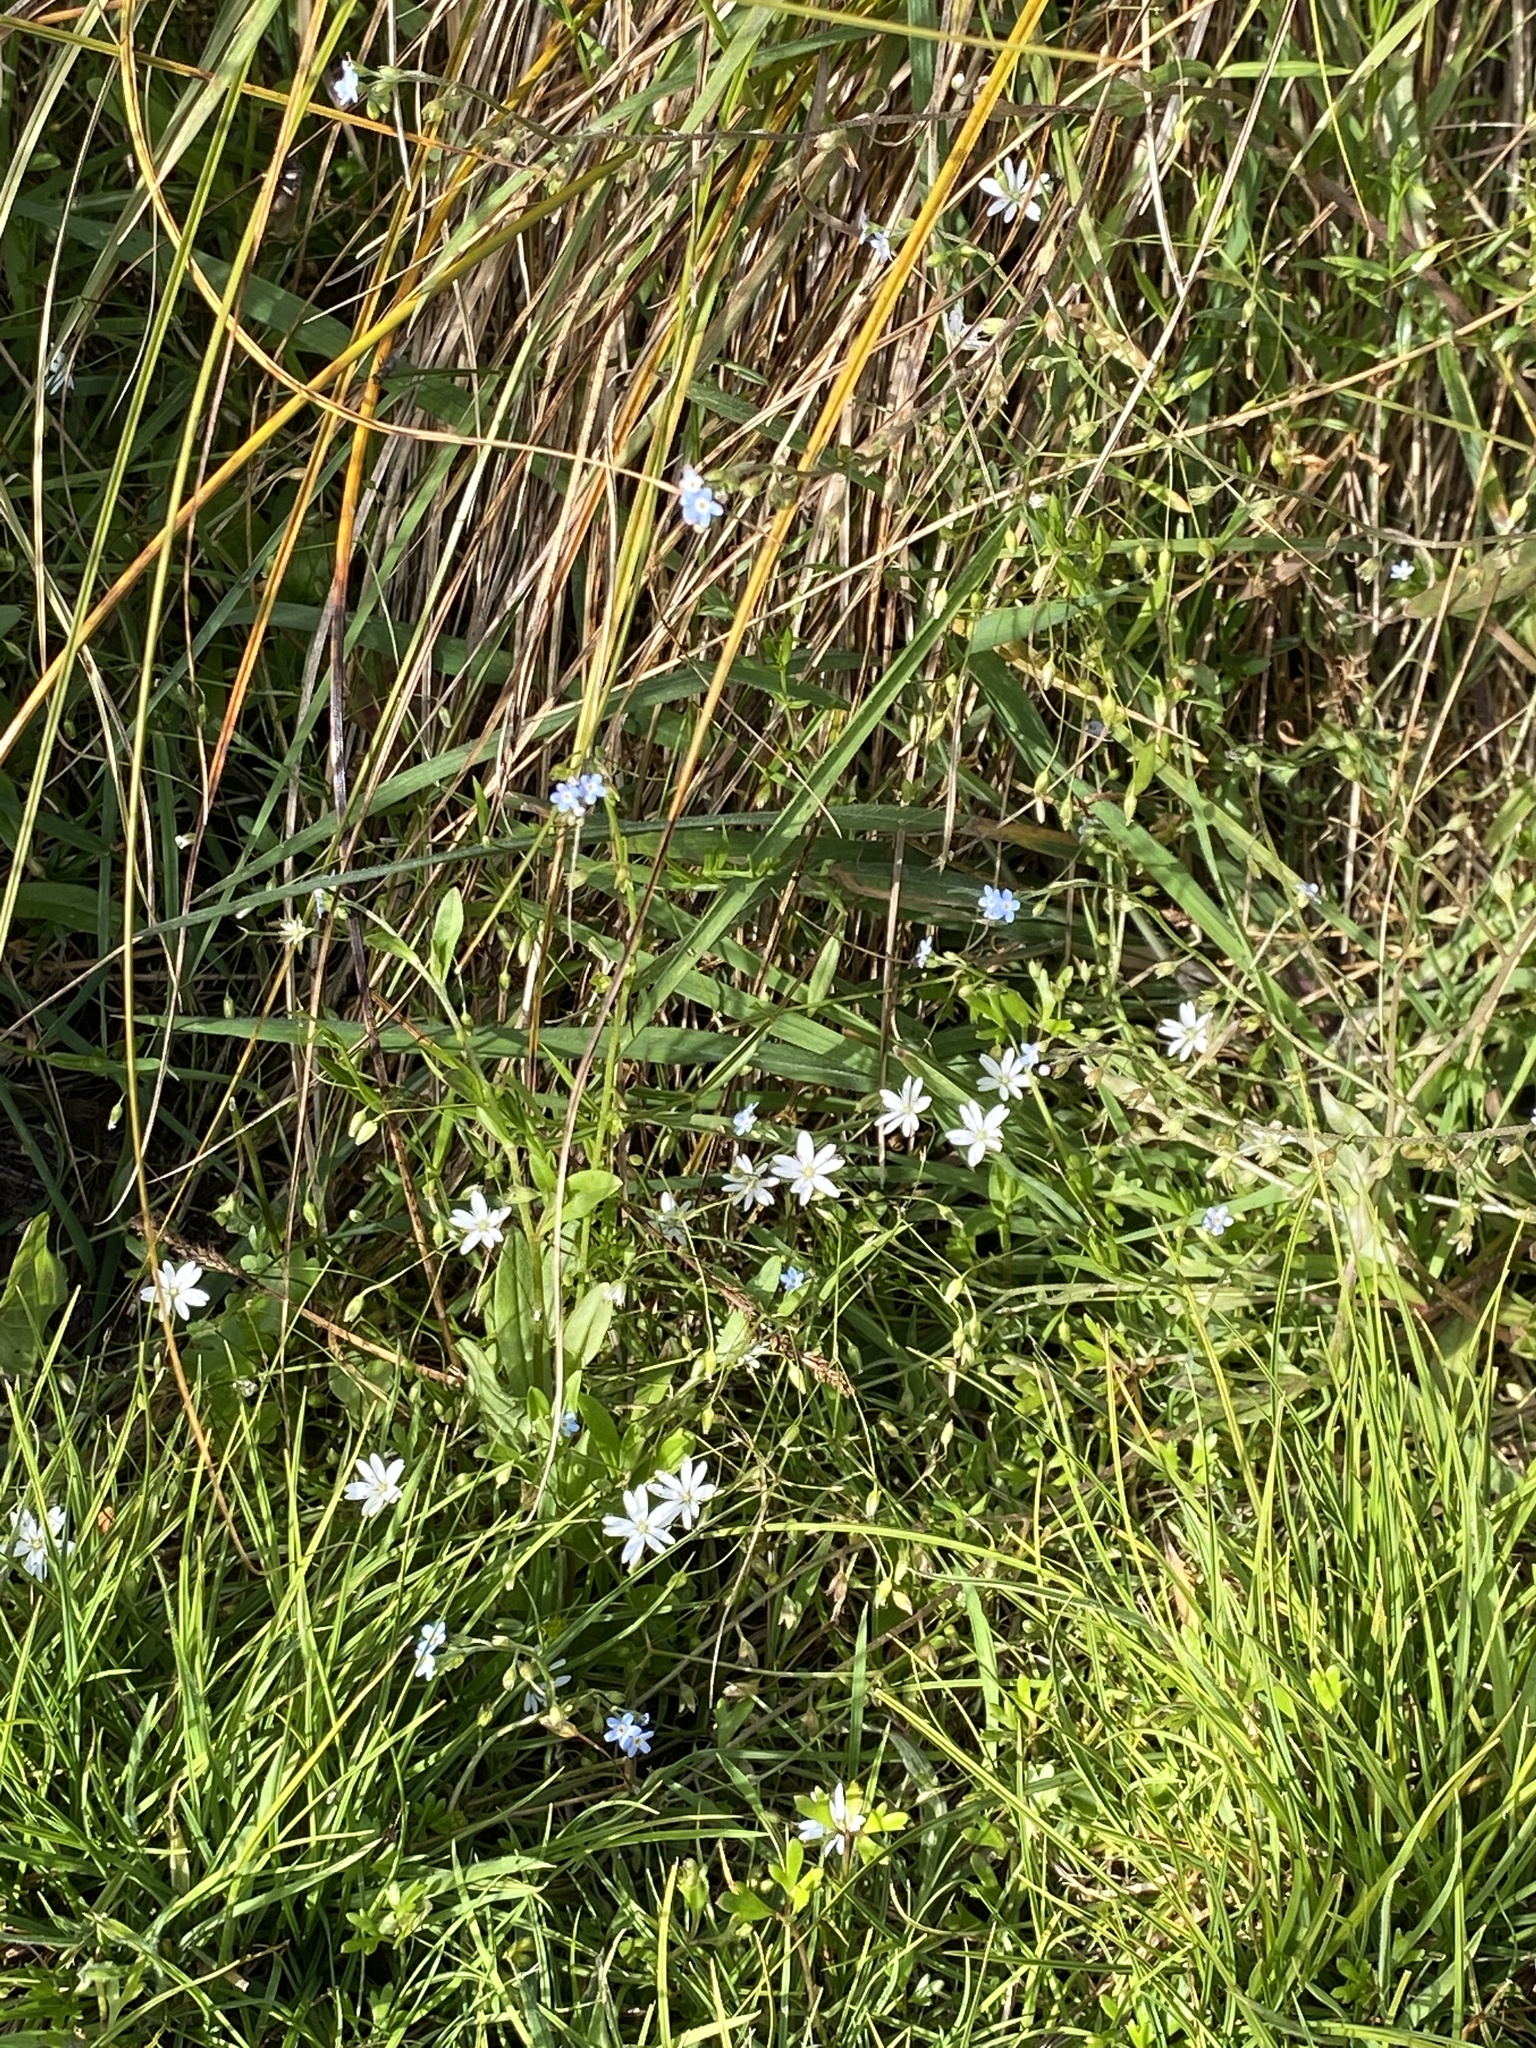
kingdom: Plantae
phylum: Tracheophyta
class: Magnoliopsida
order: Caryophyllales
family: Caryophyllaceae
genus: Stellaria
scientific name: Stellaria graminea
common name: Grass-like starwort
